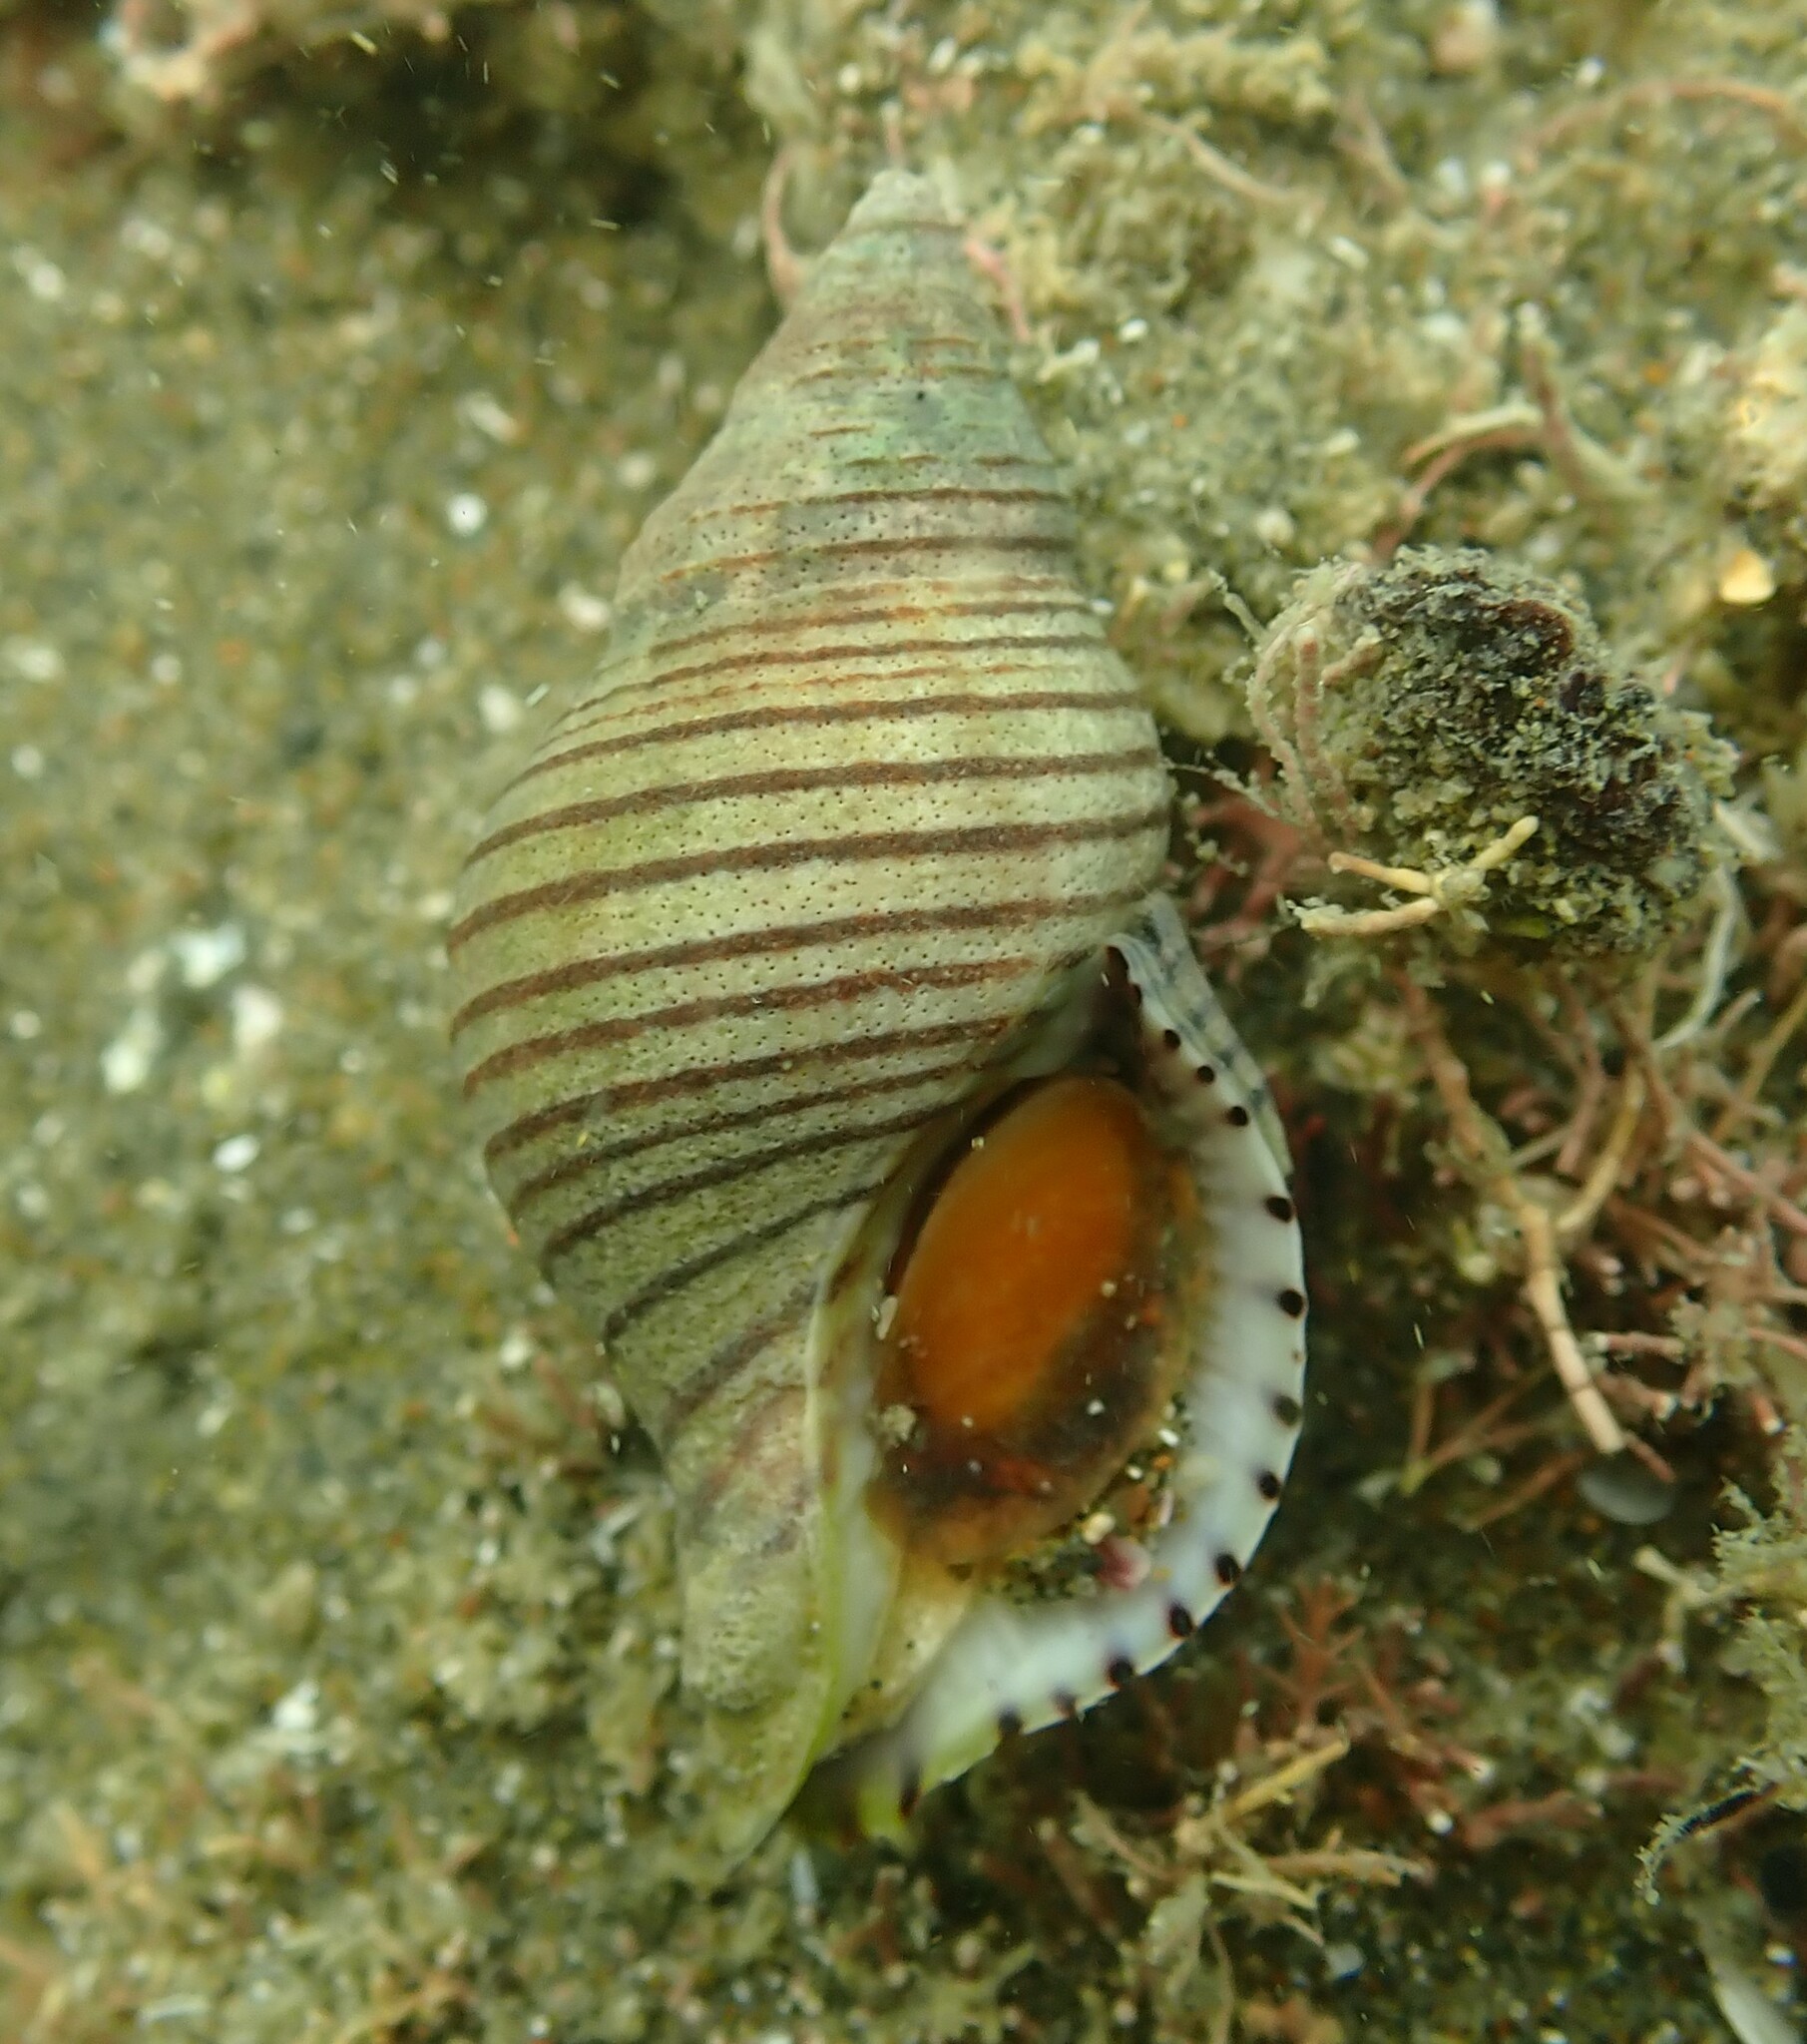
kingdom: Animalia
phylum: Mollusca
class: Gastropoda
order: Neogastropoda
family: Tudiclidae
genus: Buccinulum
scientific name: Buccinulum linea
